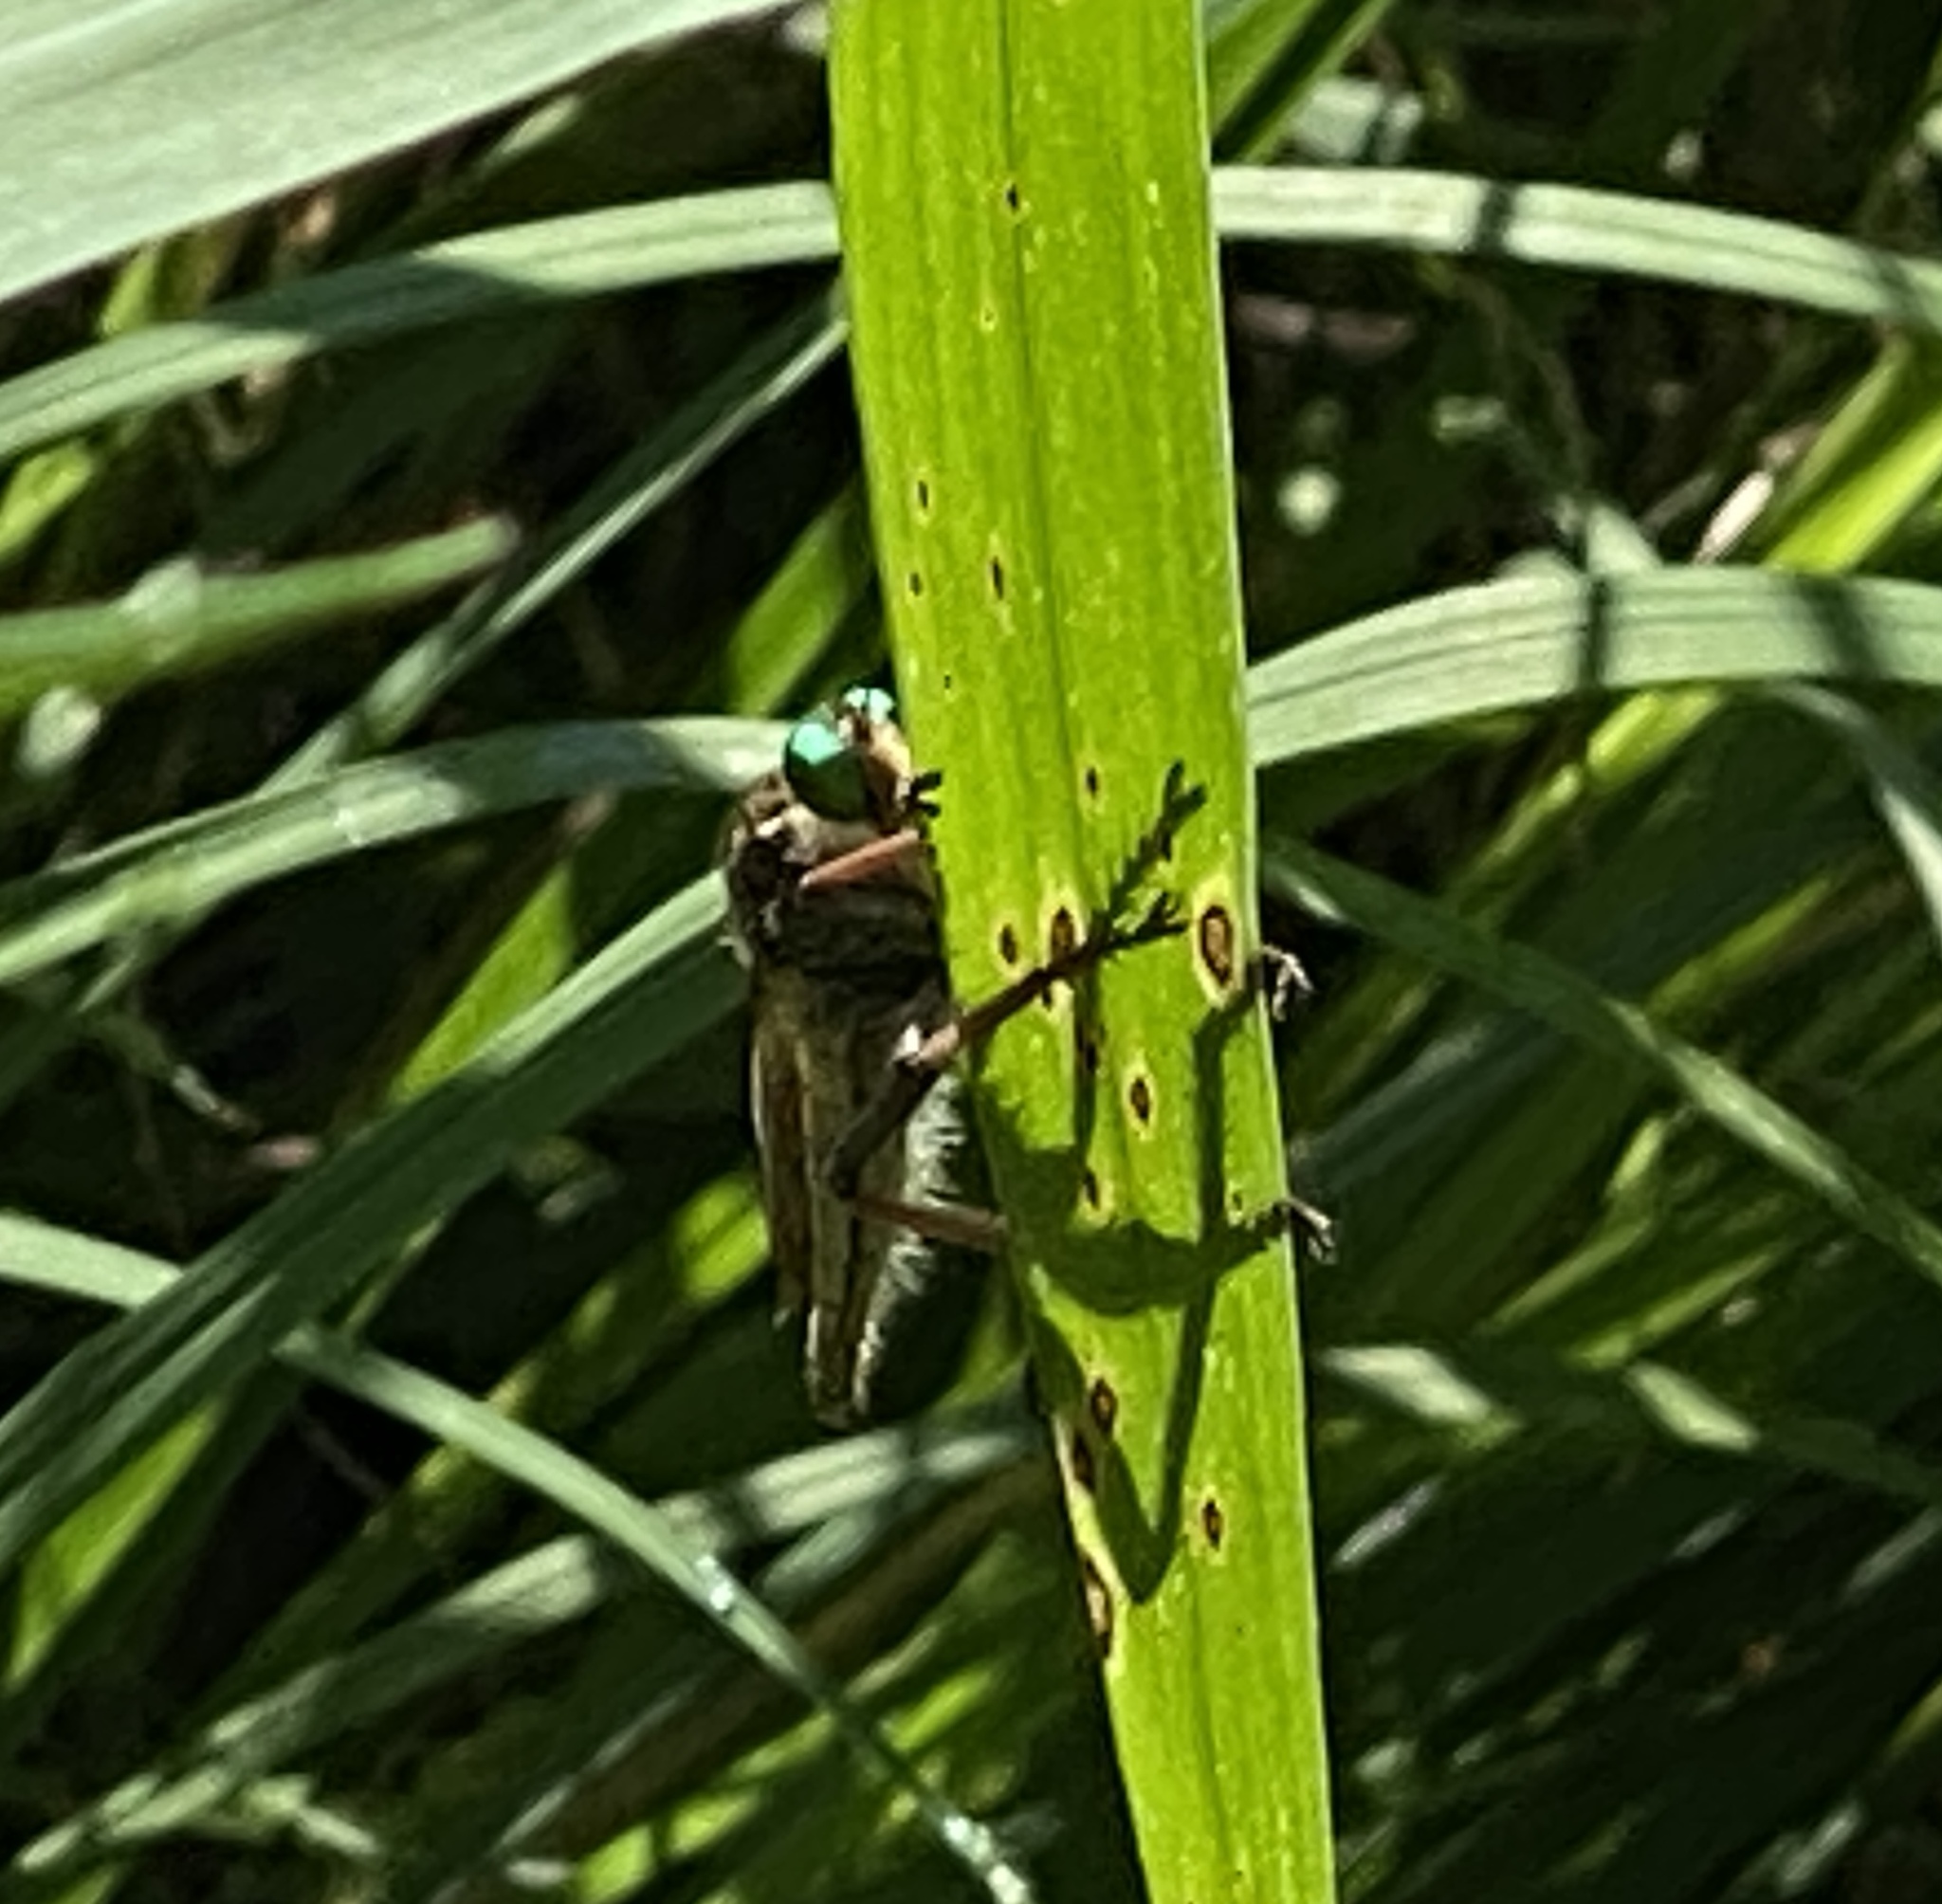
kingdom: Animalia
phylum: Arthropoda
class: Insecta
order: Diptera
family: Asilidae
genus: Promachus
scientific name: Promachus vertebratus
